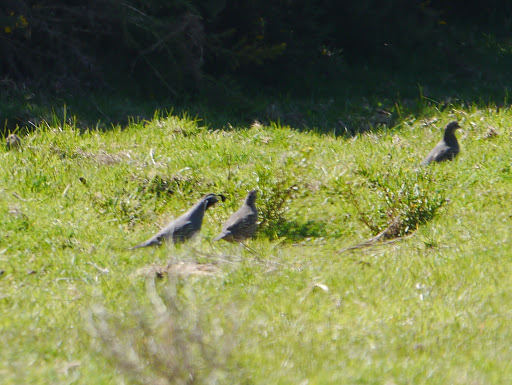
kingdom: Animalia
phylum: Chordata
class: Aves
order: Galliformes
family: Odontophoridae
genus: Callipepla
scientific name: Callipepla californica
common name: California quail
